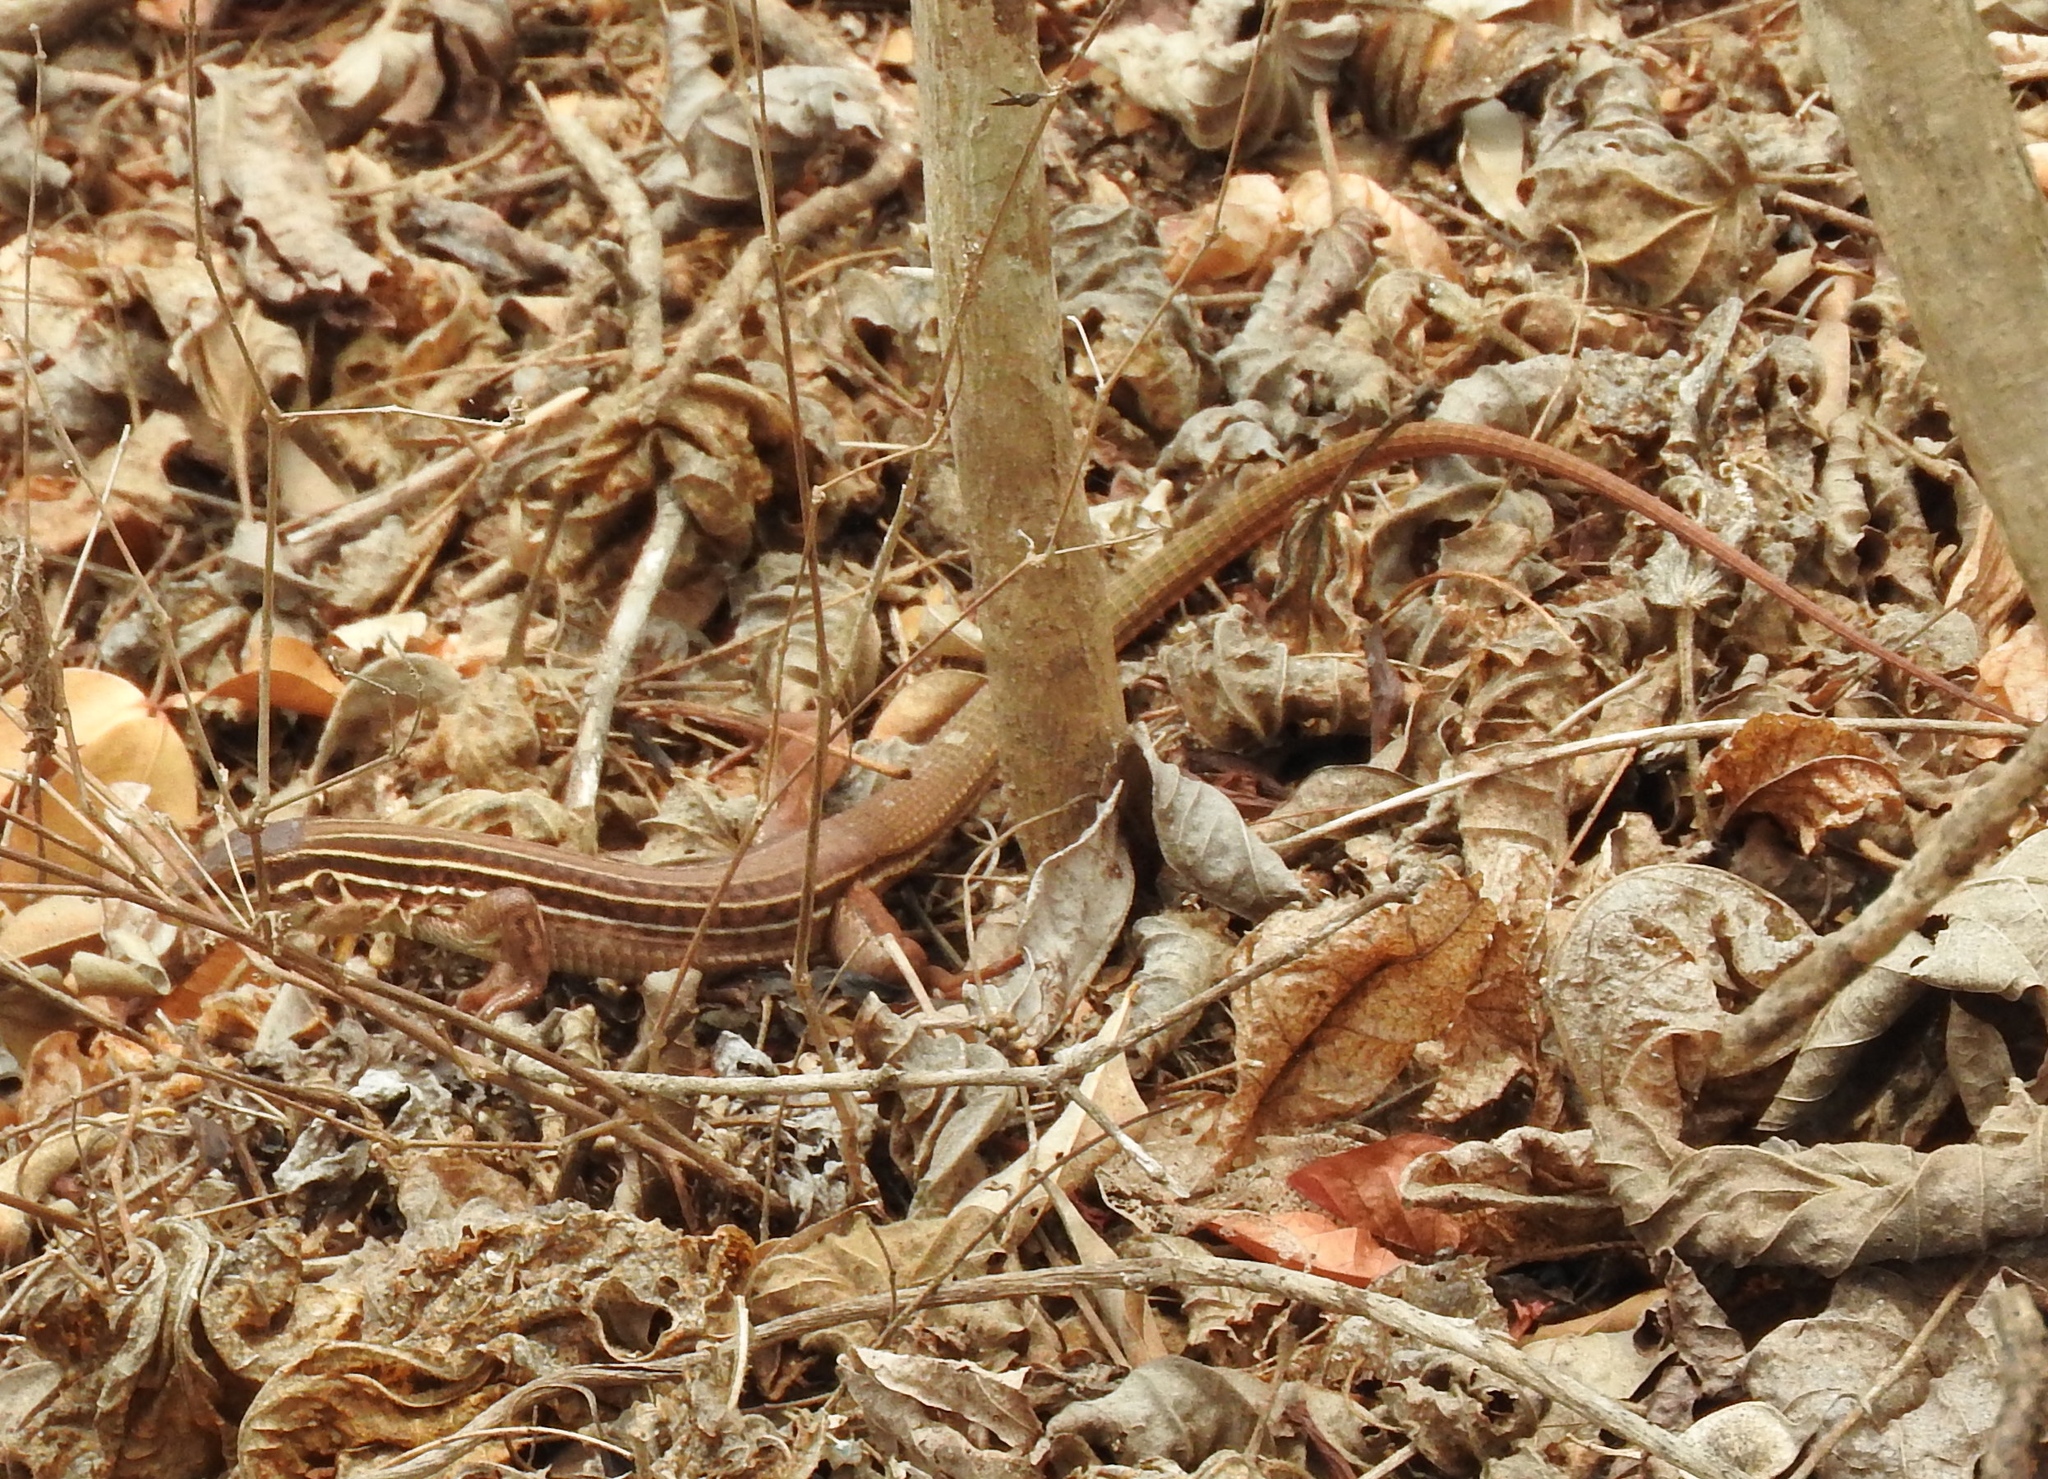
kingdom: Animalia
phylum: Chordata
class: Squamata
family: Teiidae
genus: Aspidoscelis
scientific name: Aspidoscelis costatus
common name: Western mexico whiptail
